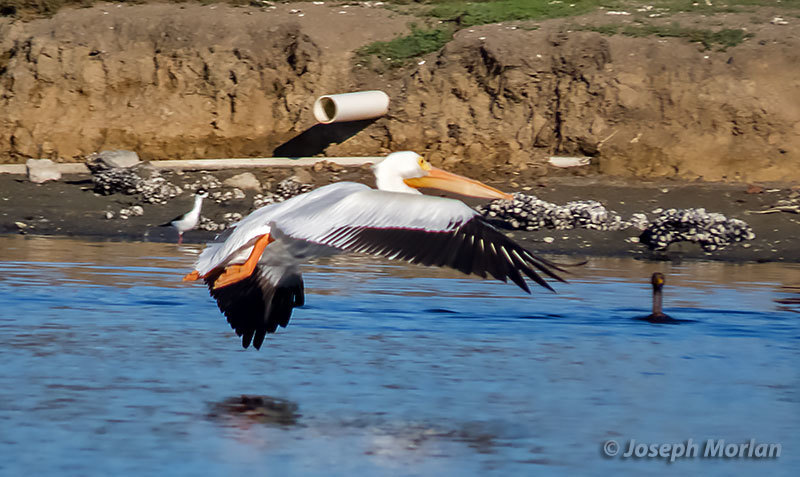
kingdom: Animalia
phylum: Chordata
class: Aves
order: Pelecaniformes
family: Pelecanidae
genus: Pelecanus
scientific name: Pelecanus erythrorhynchos
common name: American white pelican
